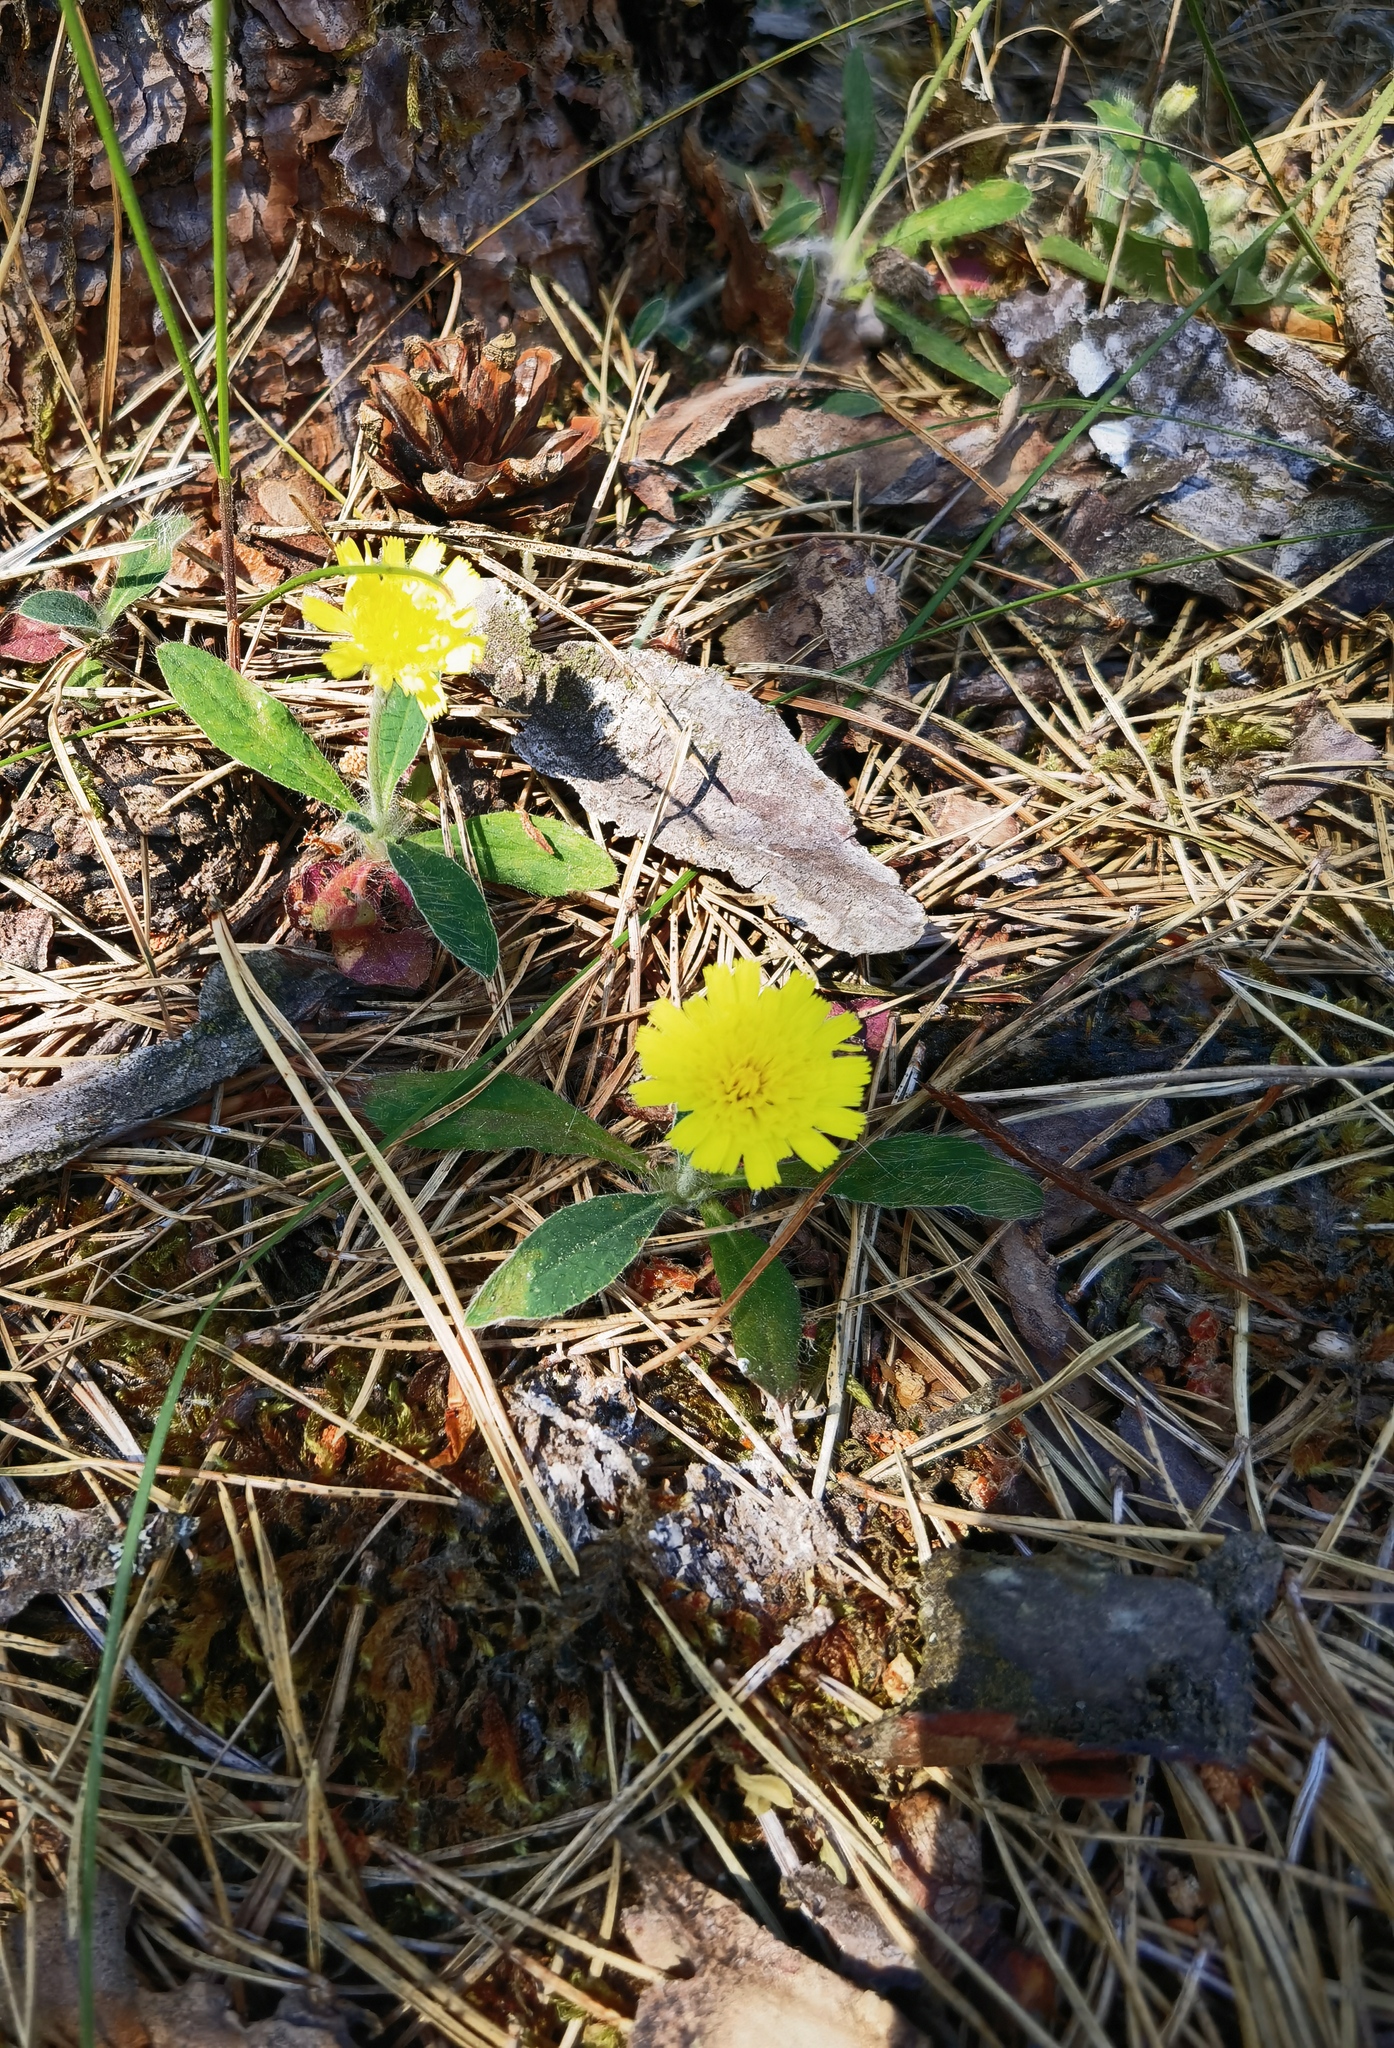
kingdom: Plantae
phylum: Tracheophyta
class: Magnoliopsida
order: Asterales
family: Asteraceae
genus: Pilosella
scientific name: Pilosella officinarum
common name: Mouse-ear hawkweed
